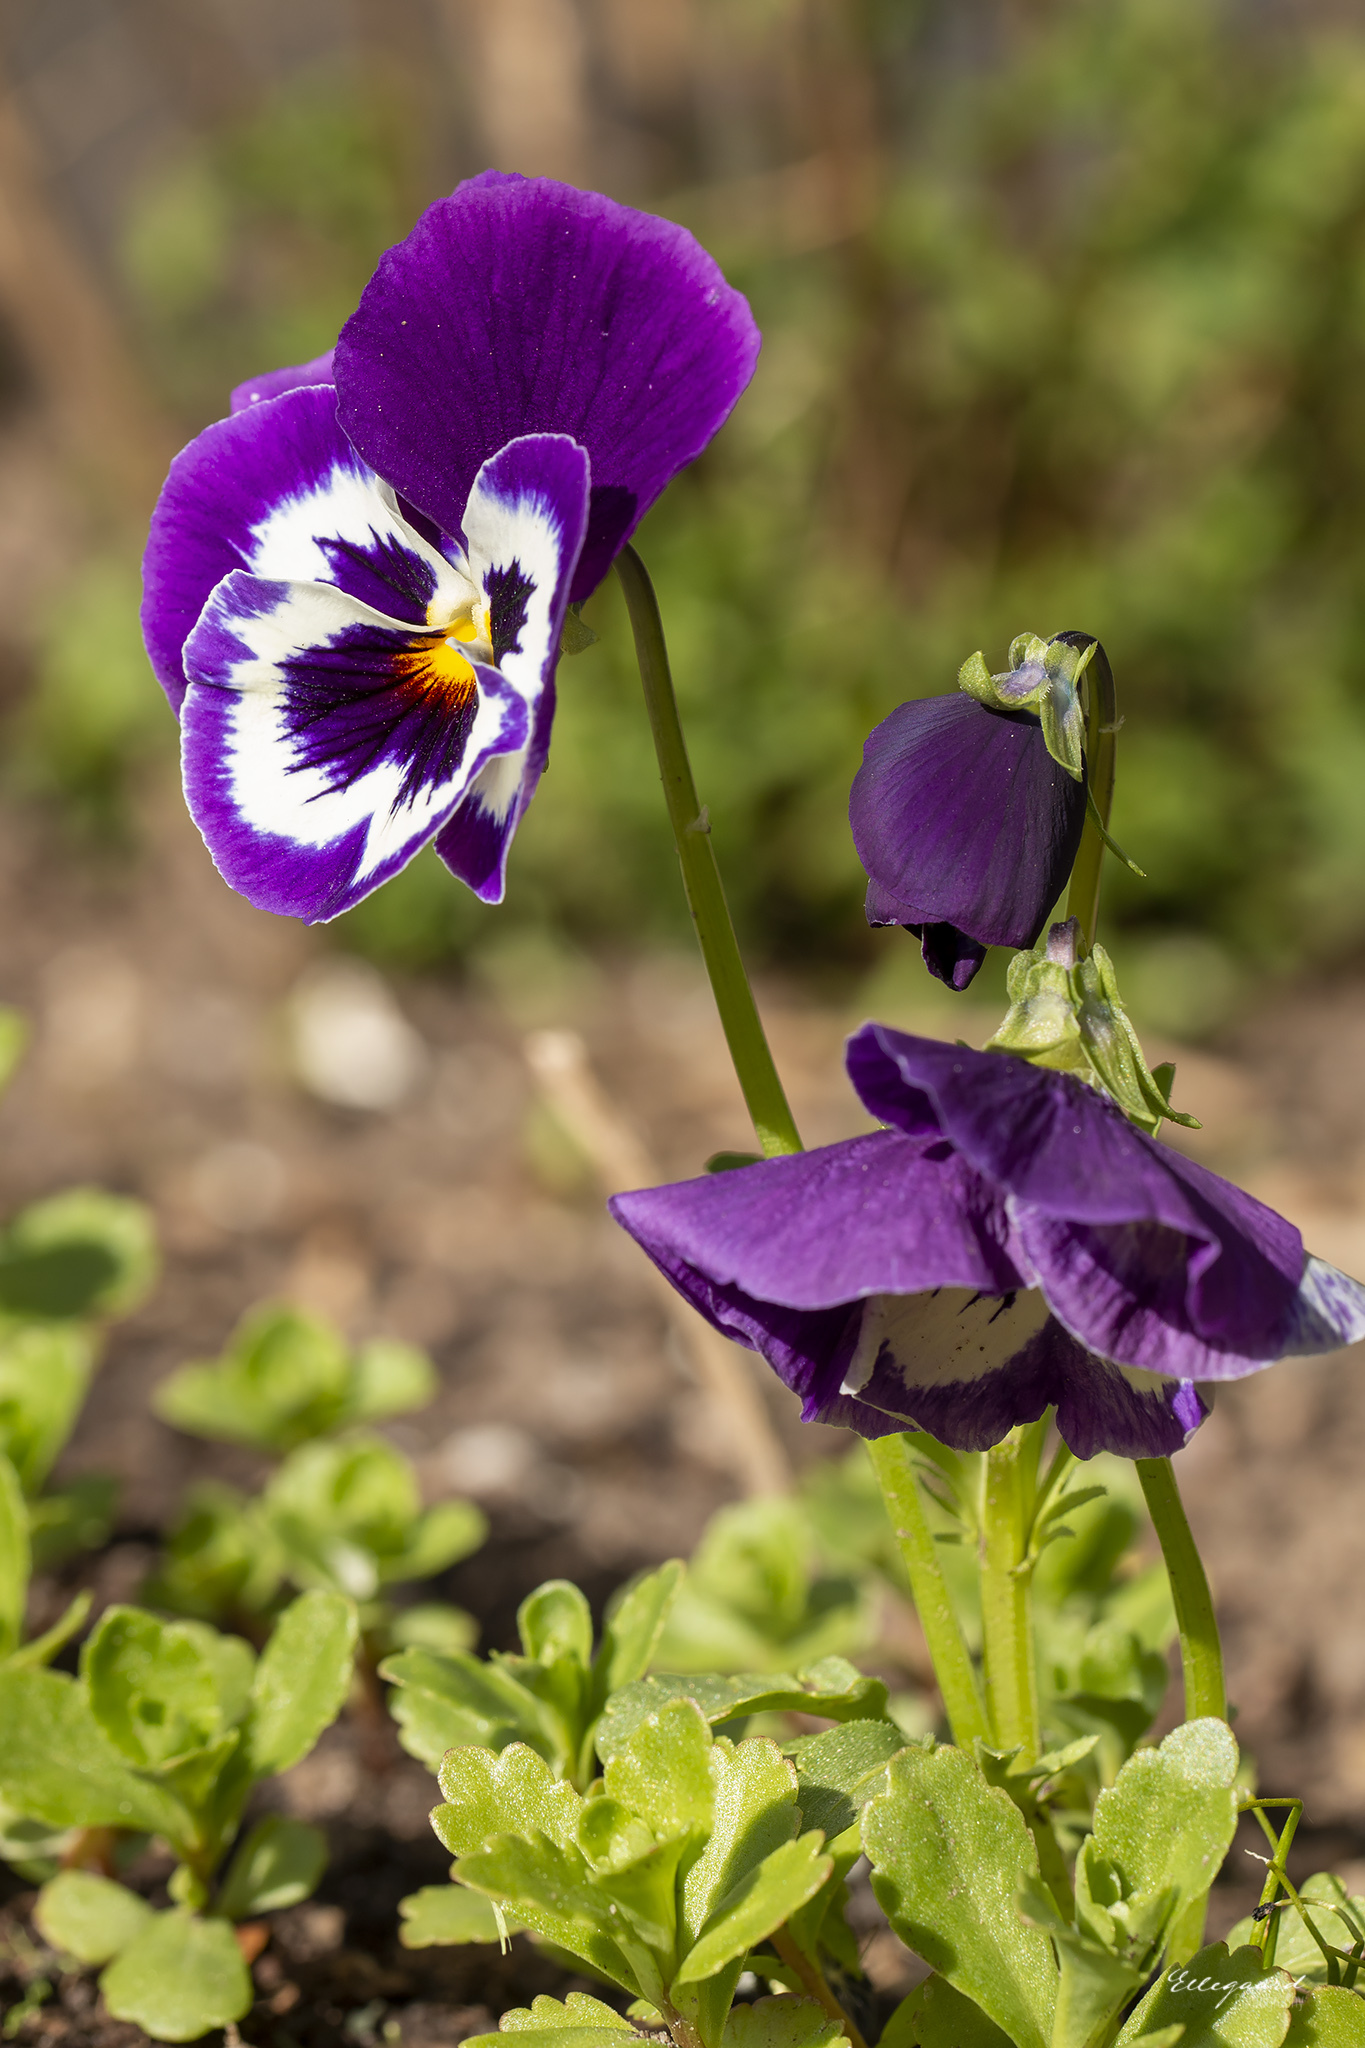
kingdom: Plantae
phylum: Tracheophyta
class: Magnoliopsida
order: Malpighiales
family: Violaceae
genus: Viola
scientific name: Viola wittrockiana
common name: Garden pansy
